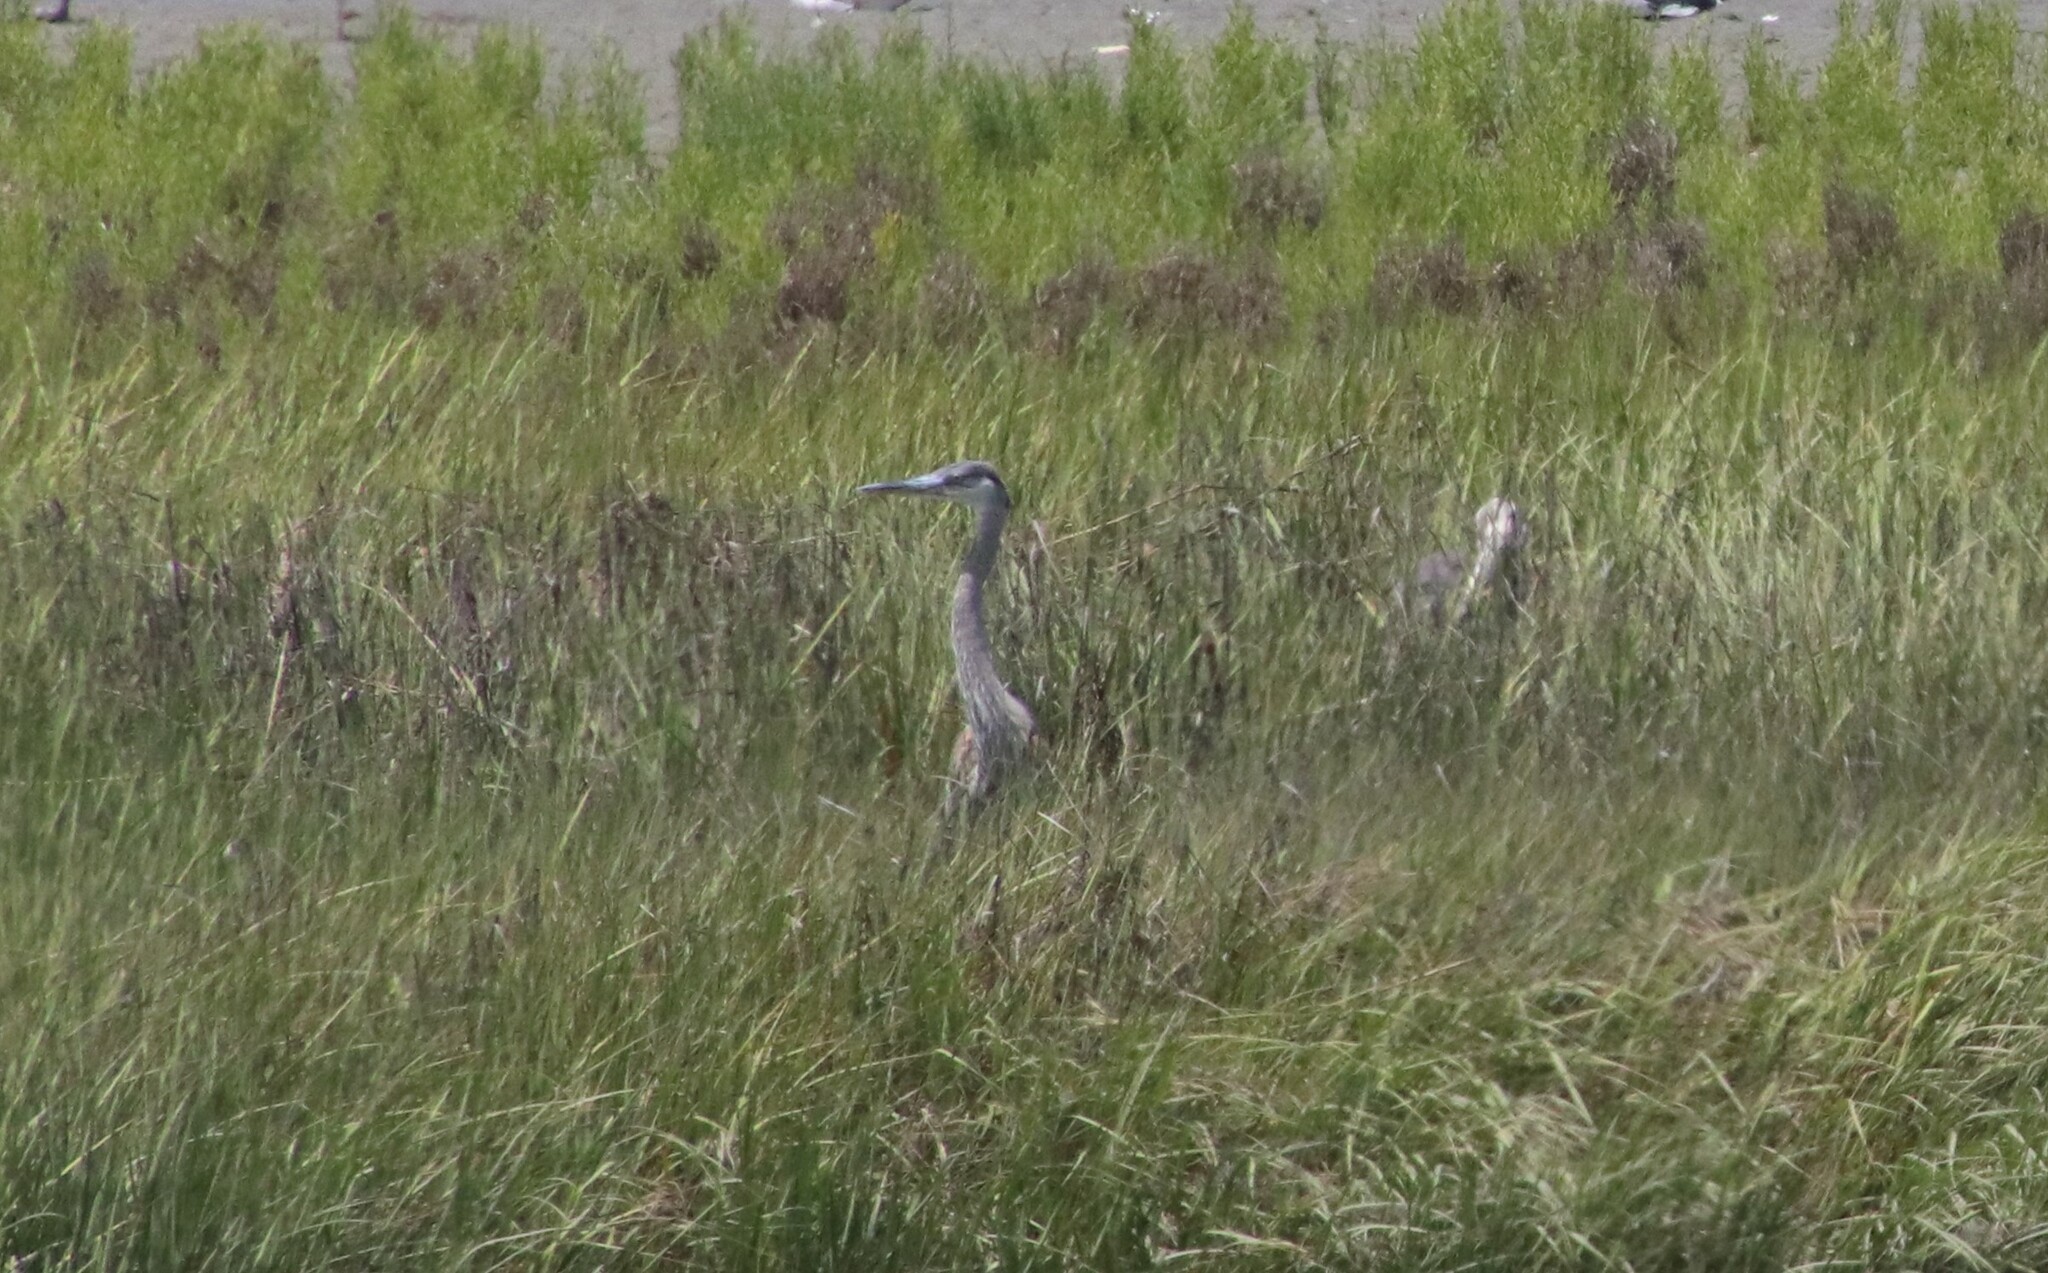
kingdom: Animalia
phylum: Chordata
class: Aves
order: Pelecaniformes
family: Ardeidae
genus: Ardea
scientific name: Ardea herodias
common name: Great blue heron
